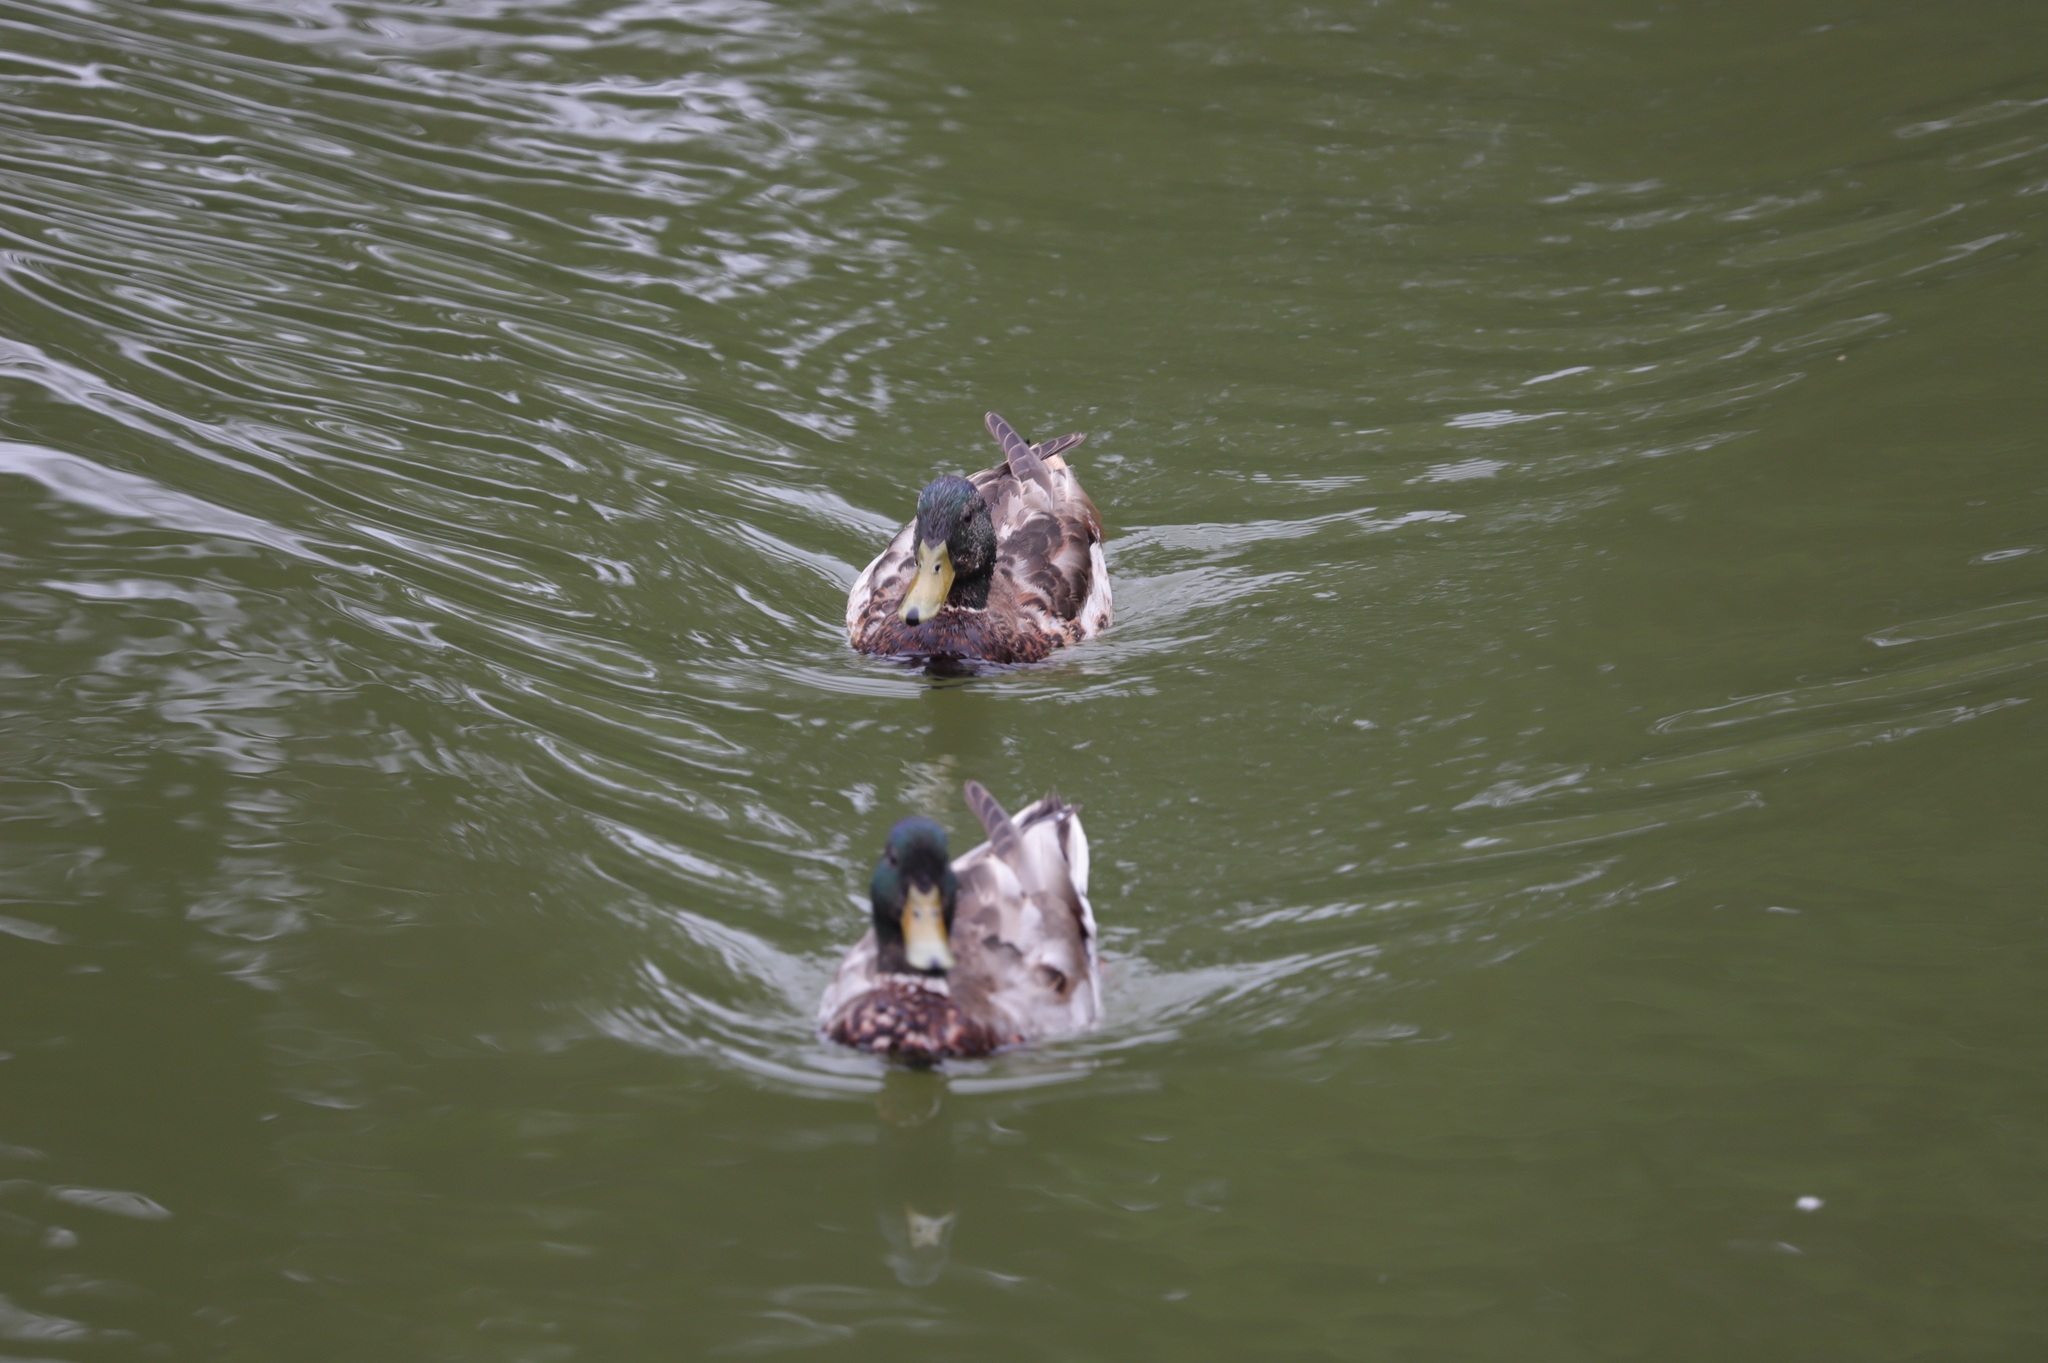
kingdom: Animalia
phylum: Chordata
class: Aves
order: Anseriformes
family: Anatidae
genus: Anas
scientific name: Anas platyrhynchos
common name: Mallard
